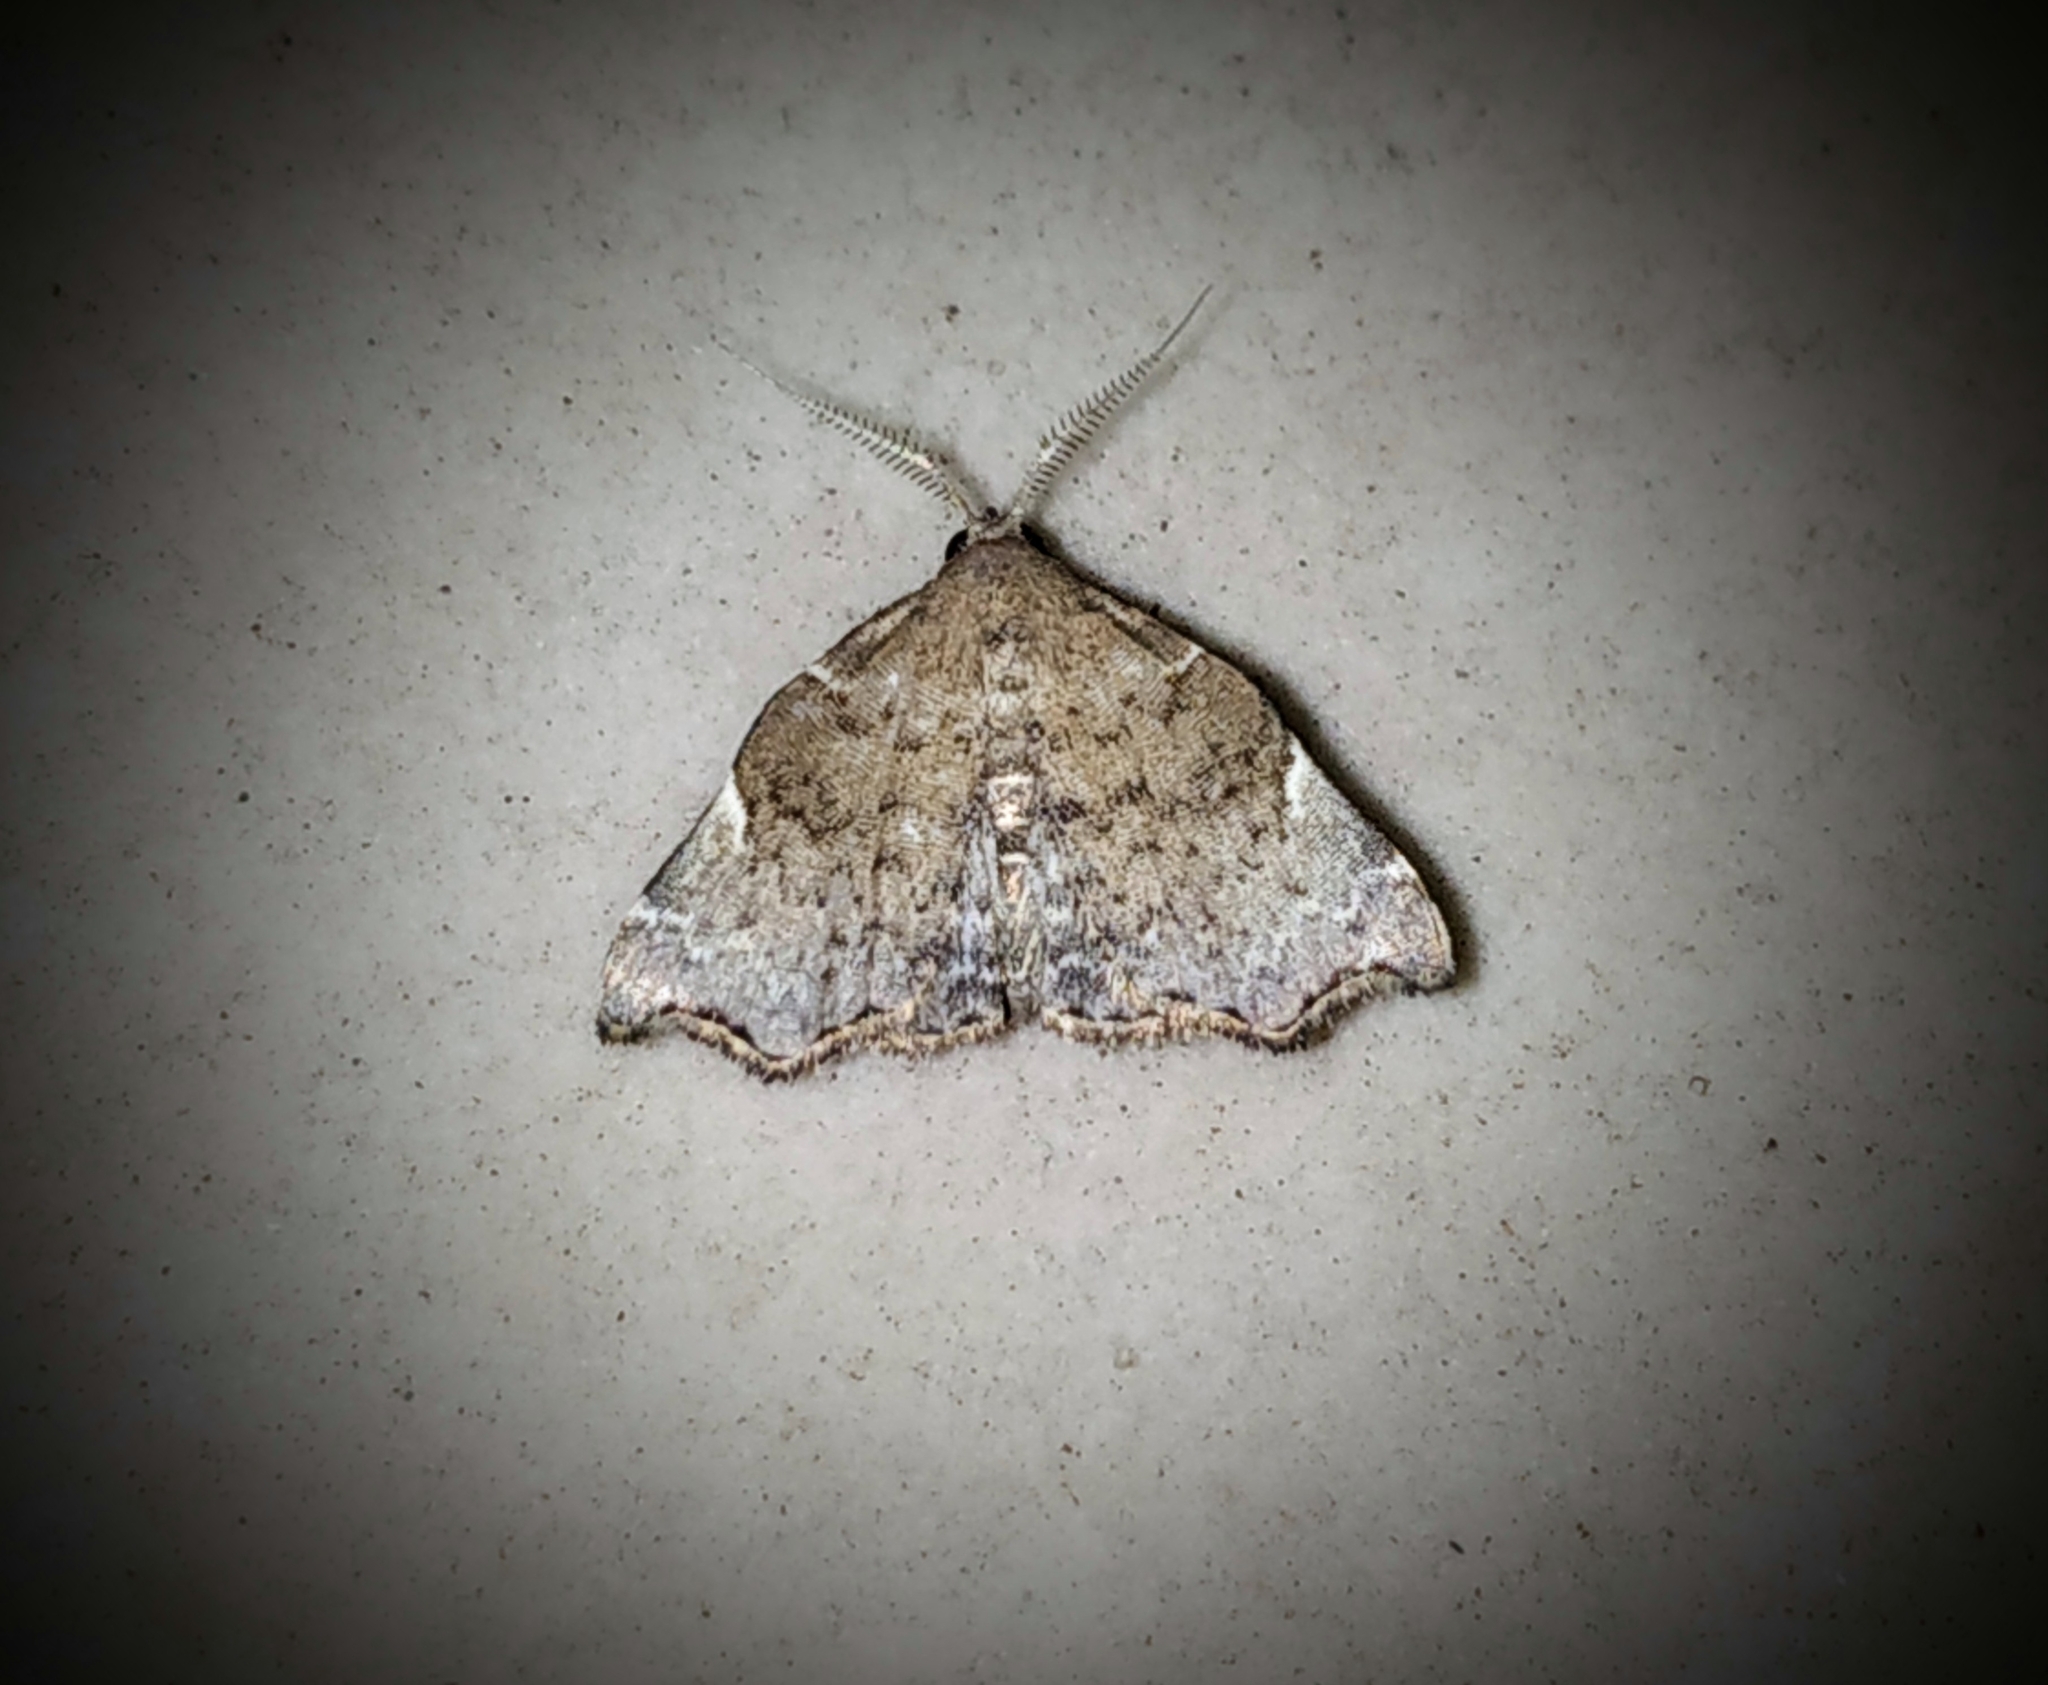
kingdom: Animalia
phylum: Arthropoda
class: Insecta
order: Lepidoptera
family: Erebidae
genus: Goniocraspedon
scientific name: Goniocraspedon mistura
